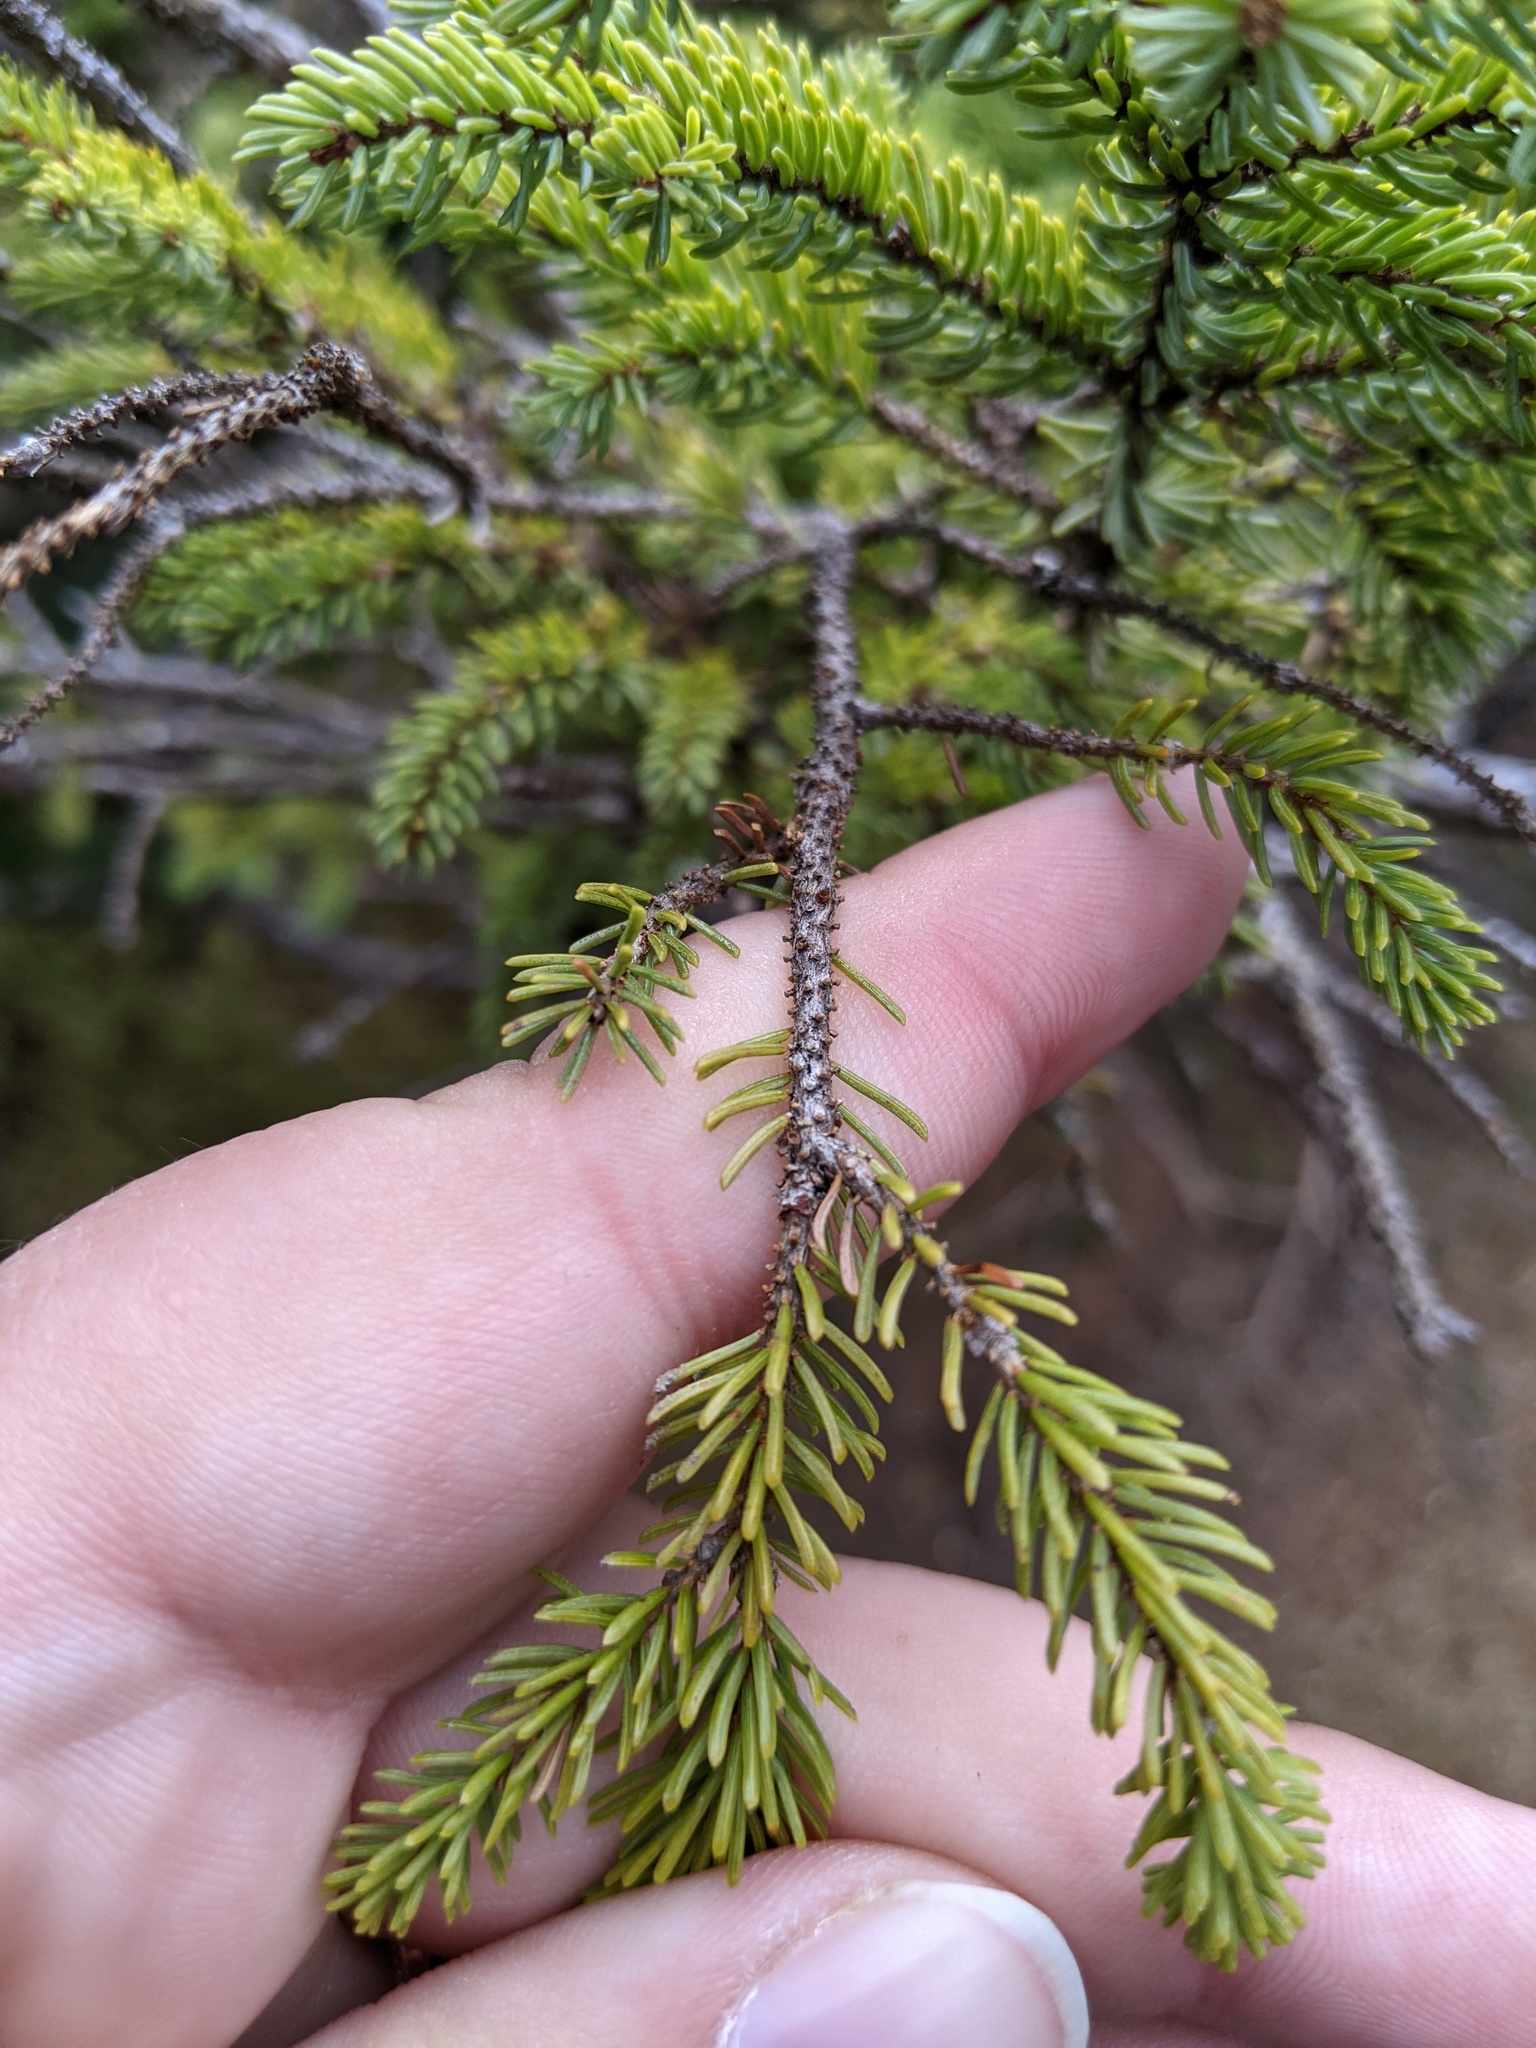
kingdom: Plantae
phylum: Tracheophyta
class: Pinopsida
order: Pinales
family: Pinaceae
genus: Picea
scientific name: Picea mariana
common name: Black spruce
